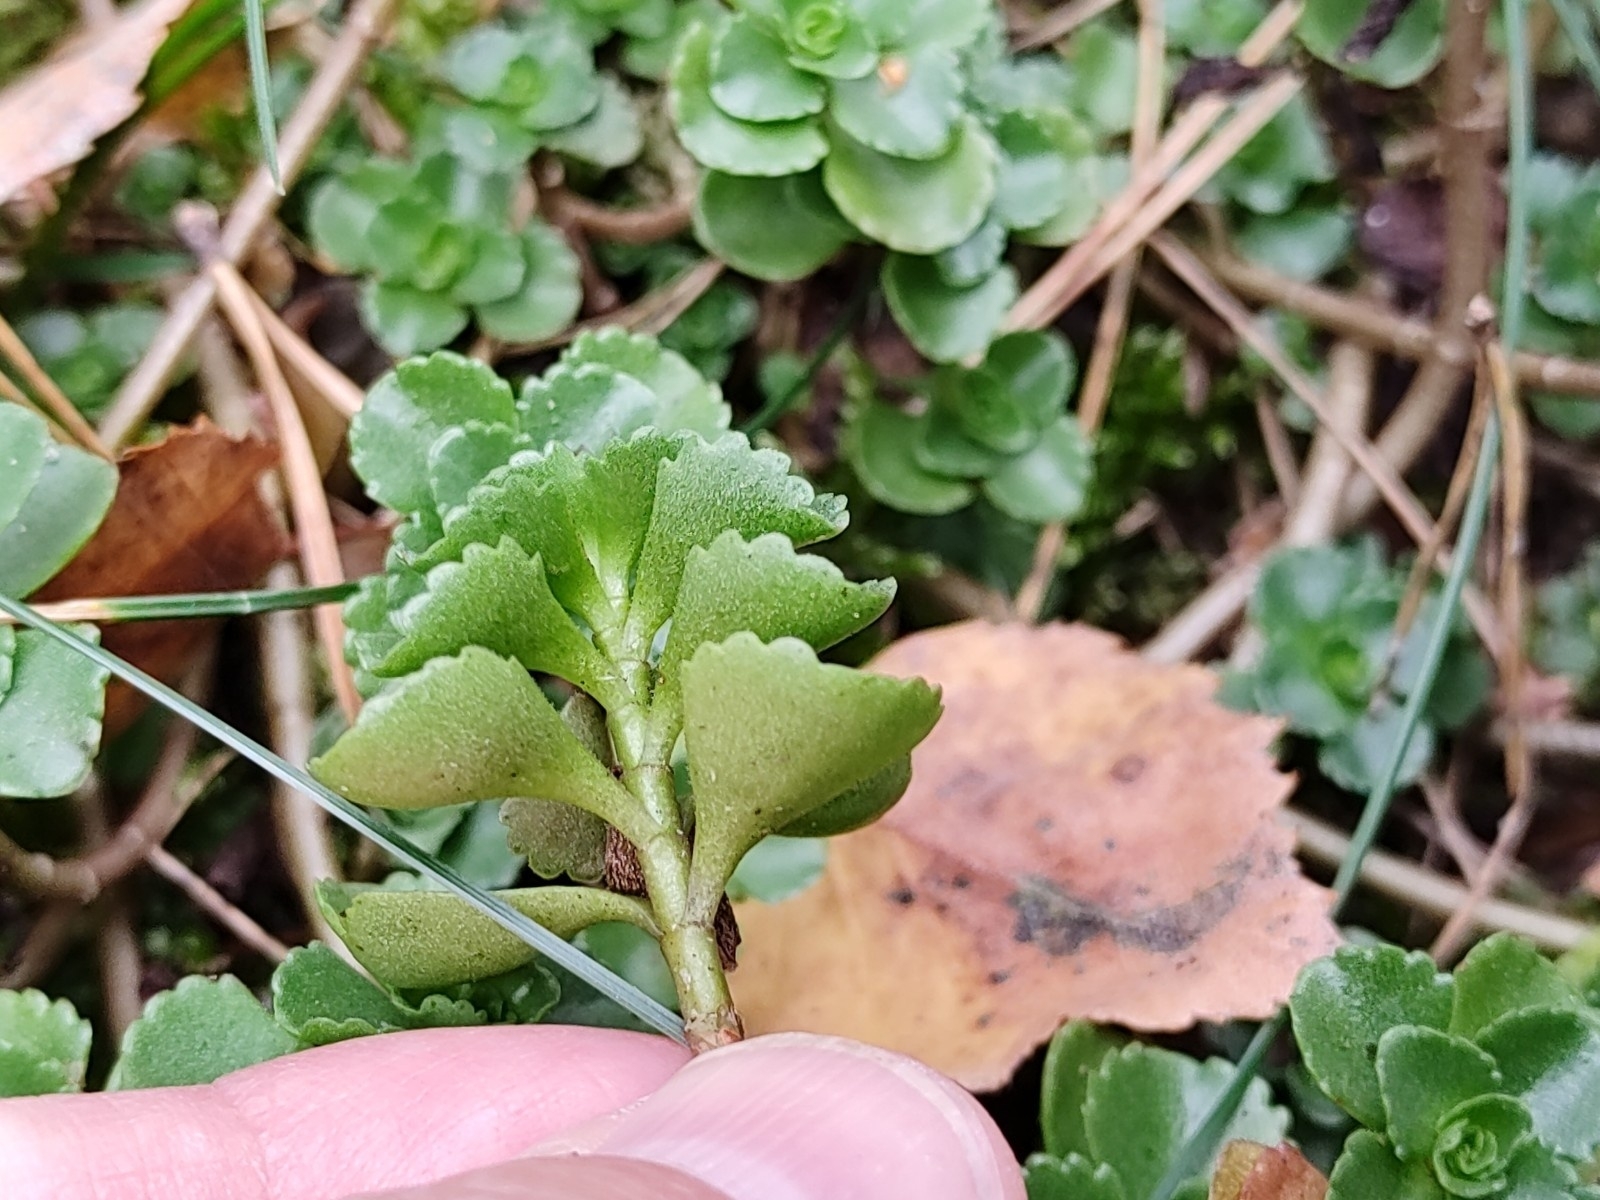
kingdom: Plantae
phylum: Tracheophyta
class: Magnoliopsida
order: Saxifragales
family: Crassulaceae
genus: Phedimus
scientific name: Phedimus spurius
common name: Caucasian stonecrop
